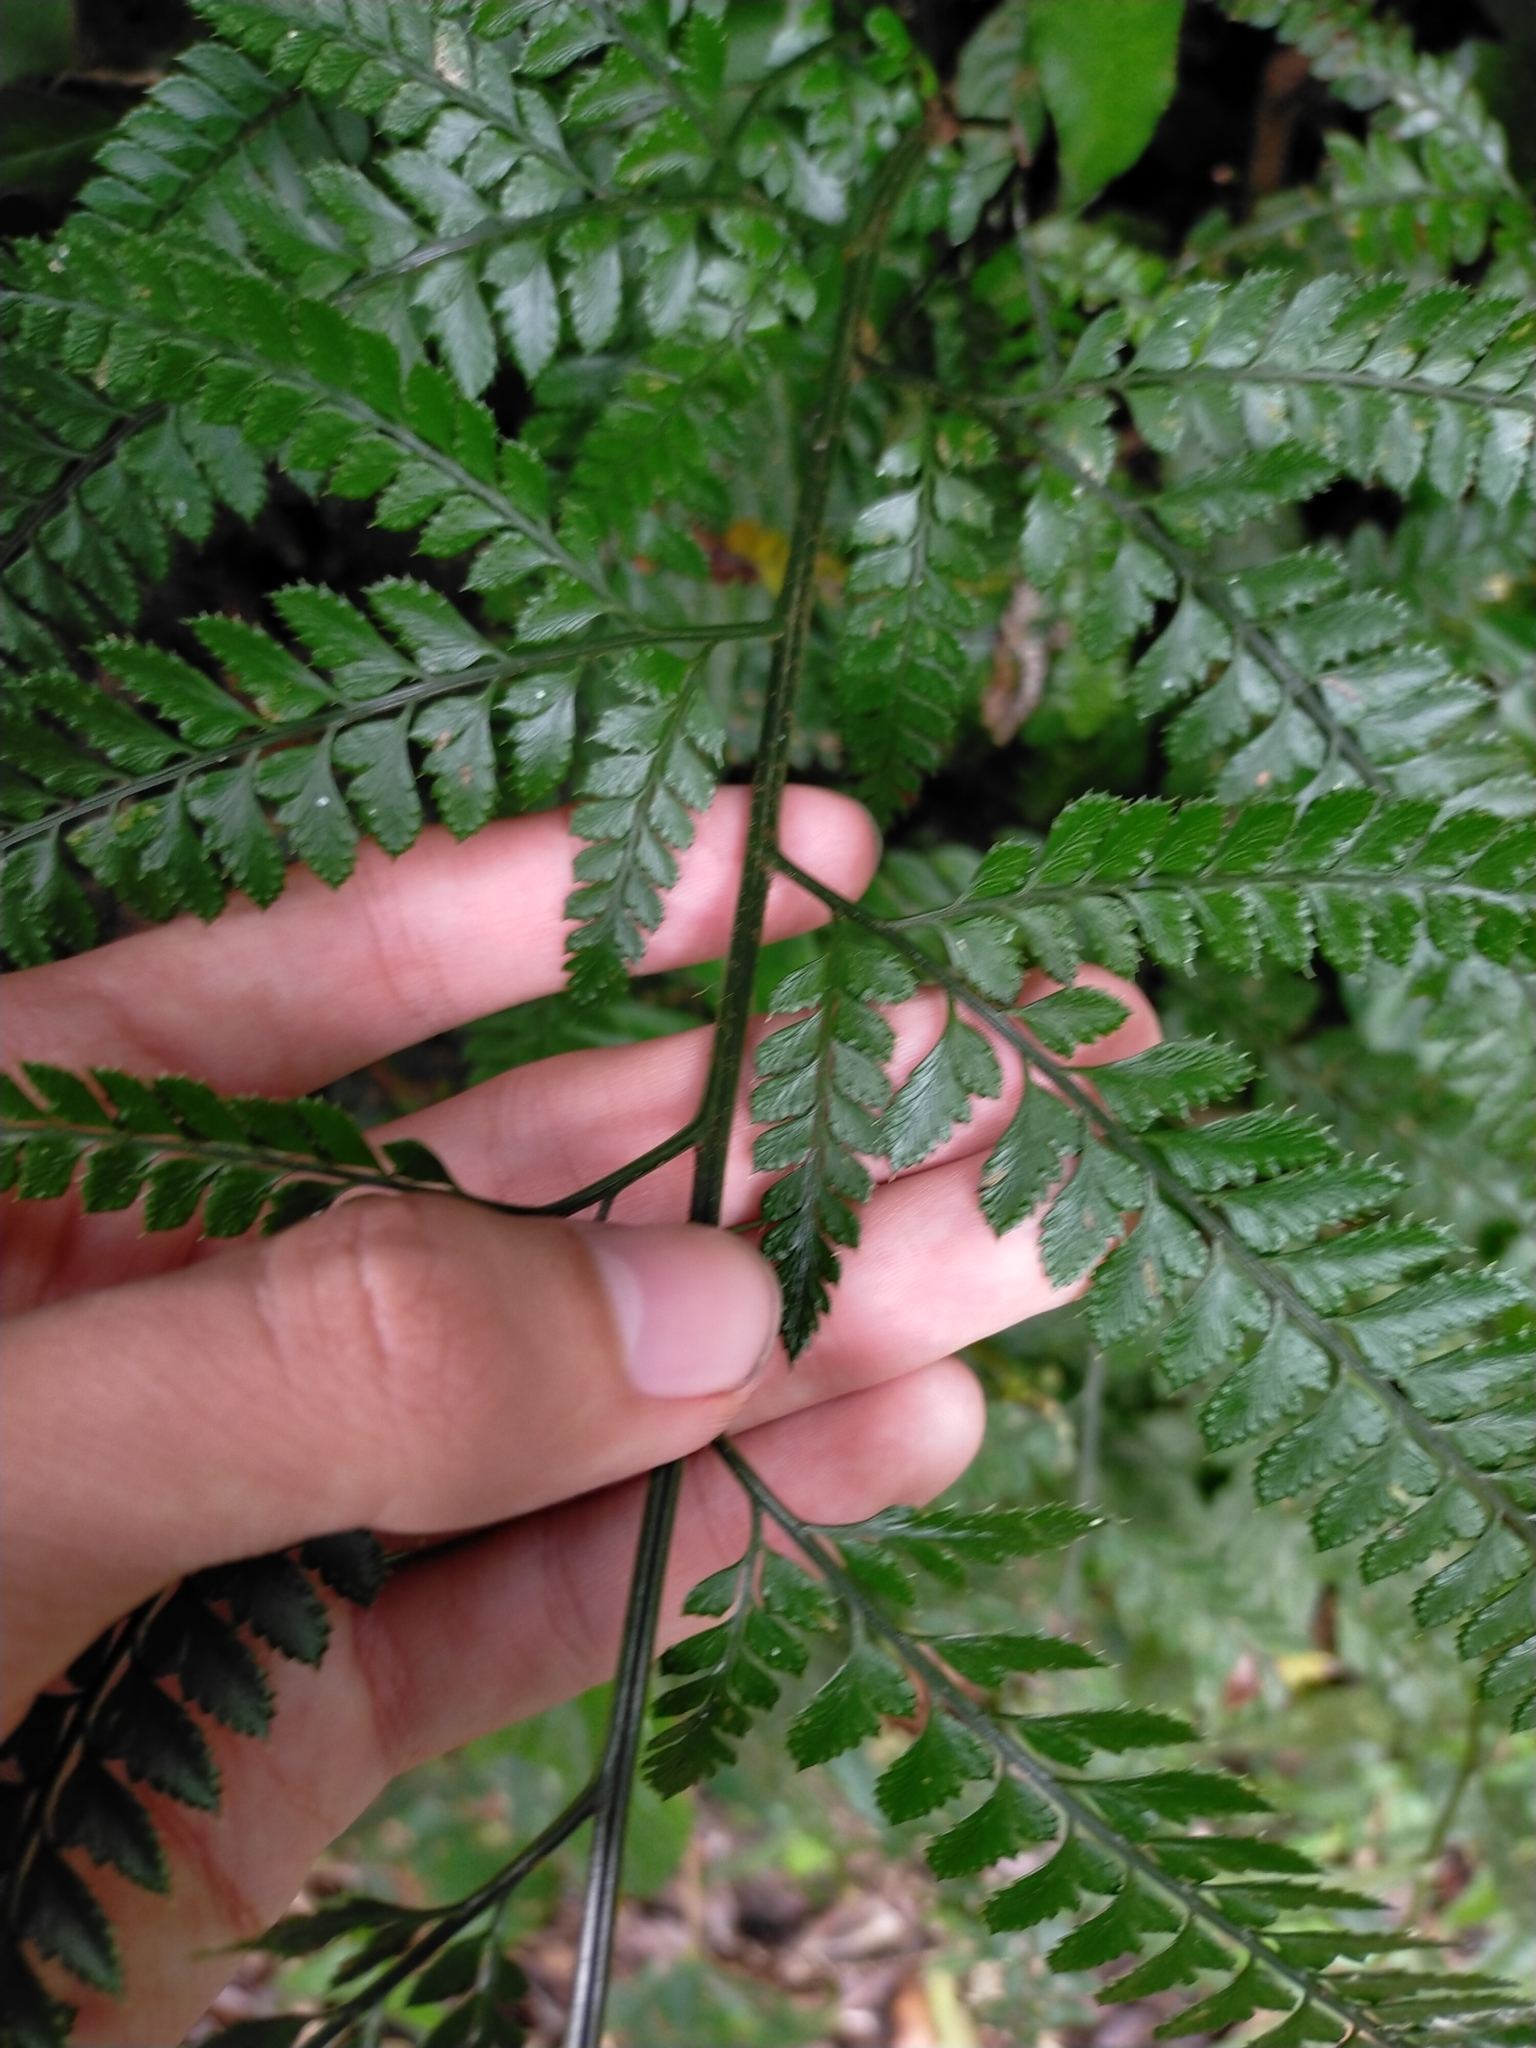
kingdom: Plantae
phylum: Tracheophyta
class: Polypodiopsida
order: Polypodiales
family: Dryopteridaceae
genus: Arachniodes
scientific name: Arachniodes pseudoaristata
